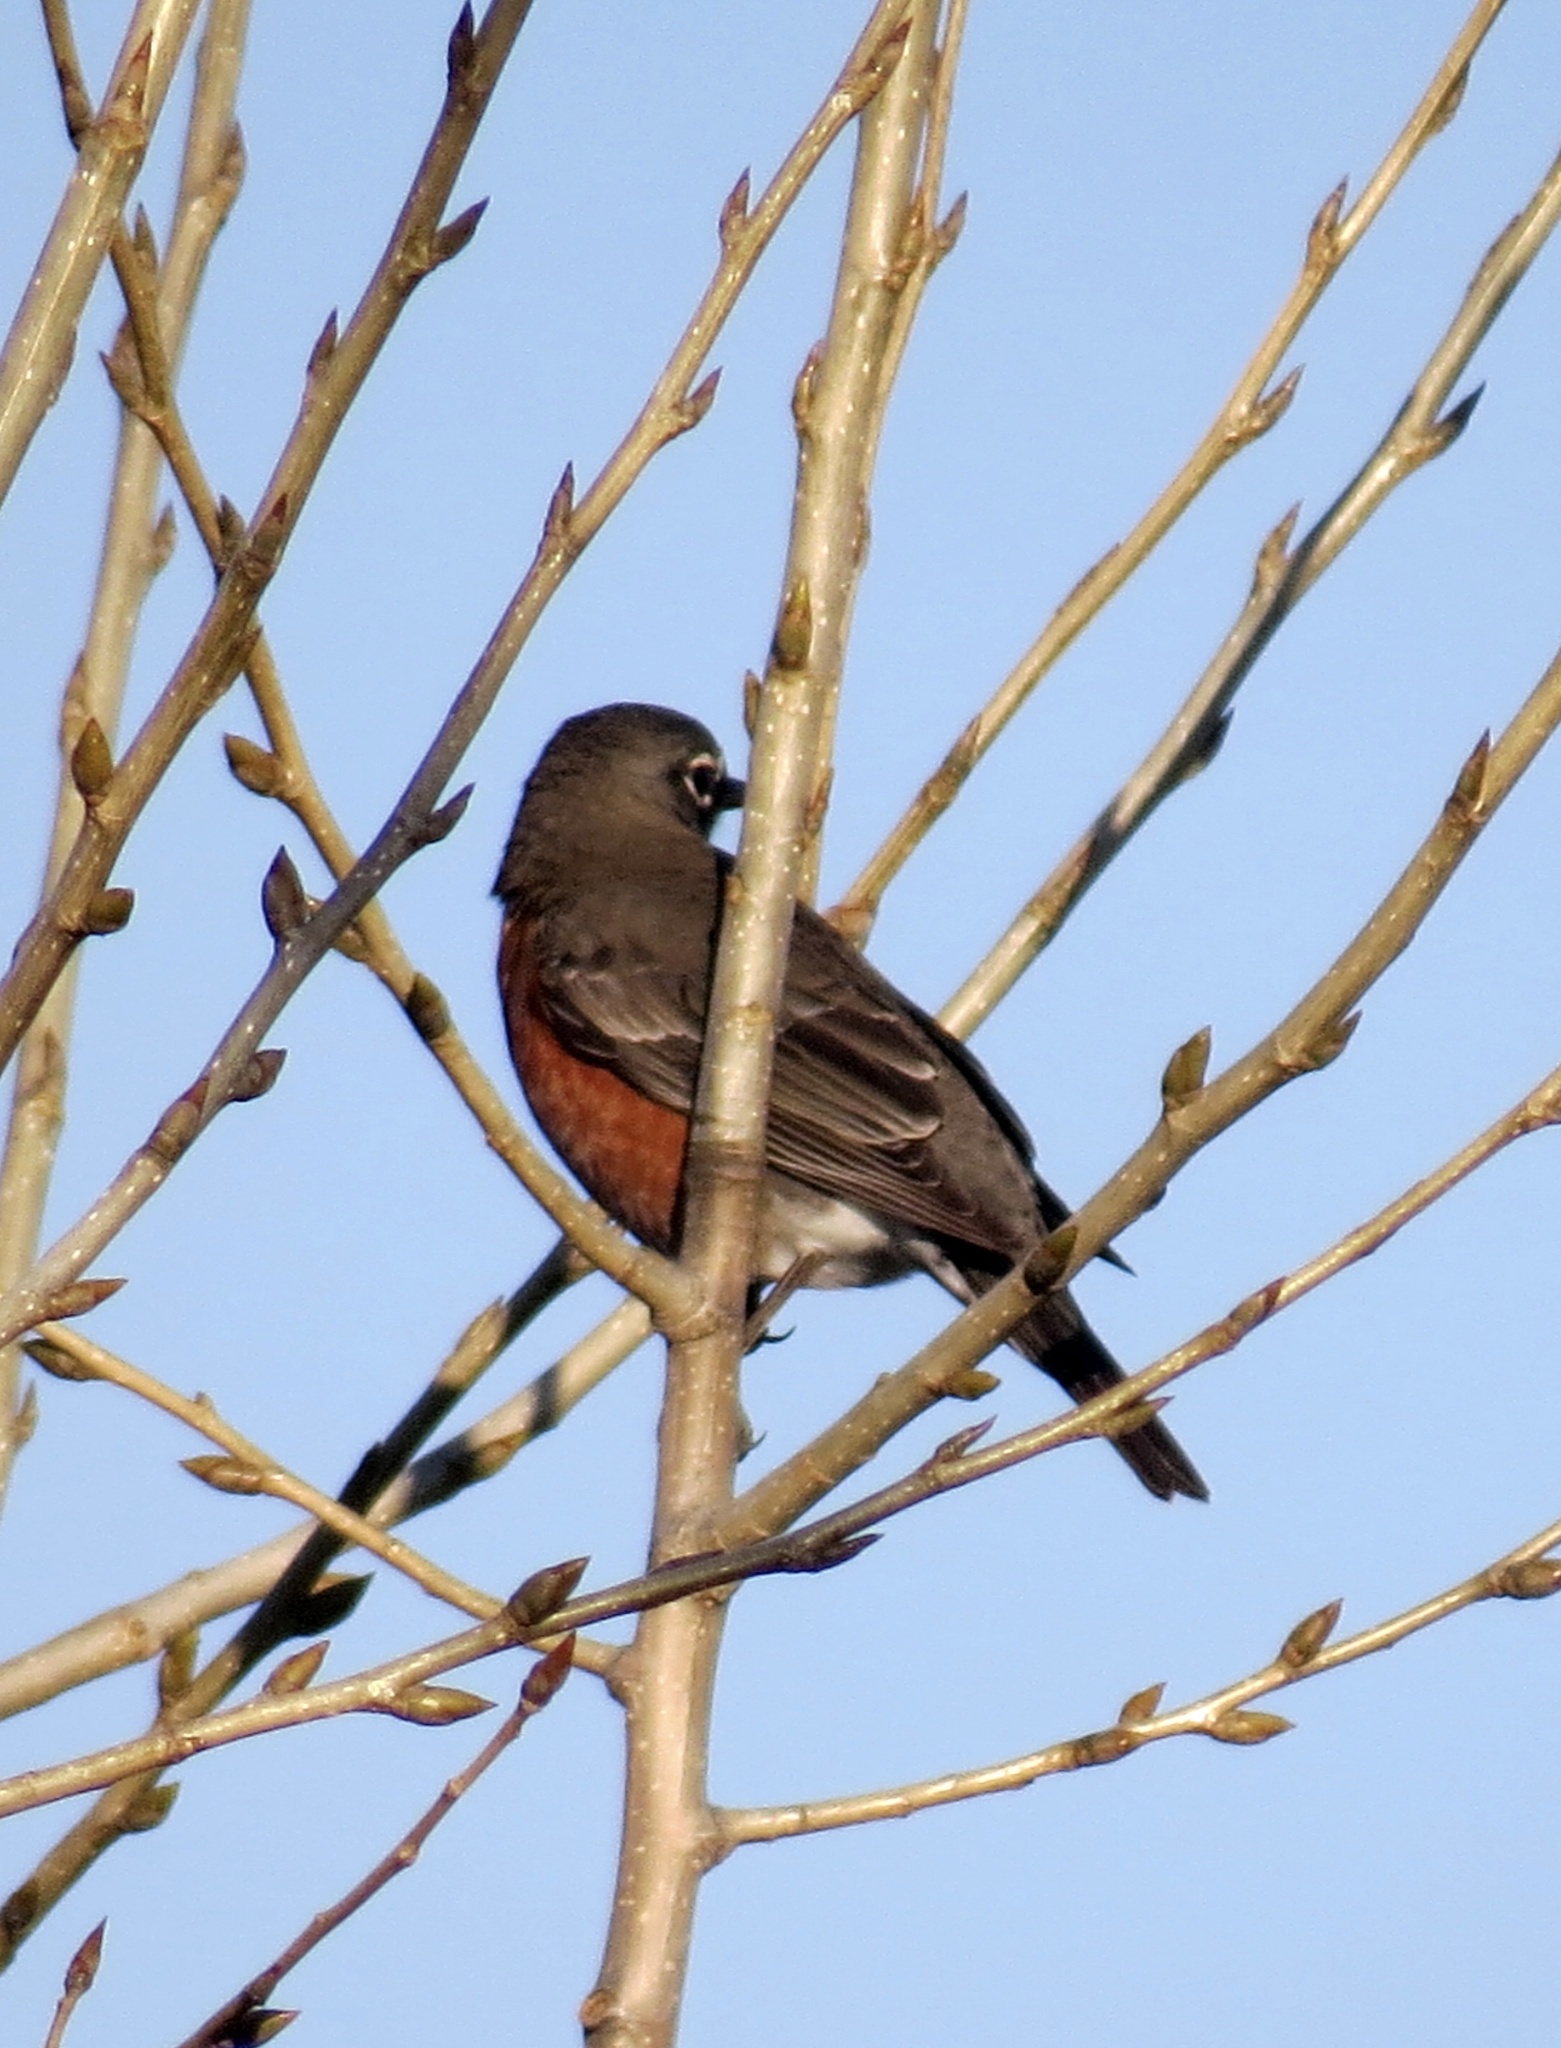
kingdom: Animalia
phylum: Chordata
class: Aves
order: Passeriformes
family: Turdidae
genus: Turdus
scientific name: Turdus migratorius
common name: American robin
